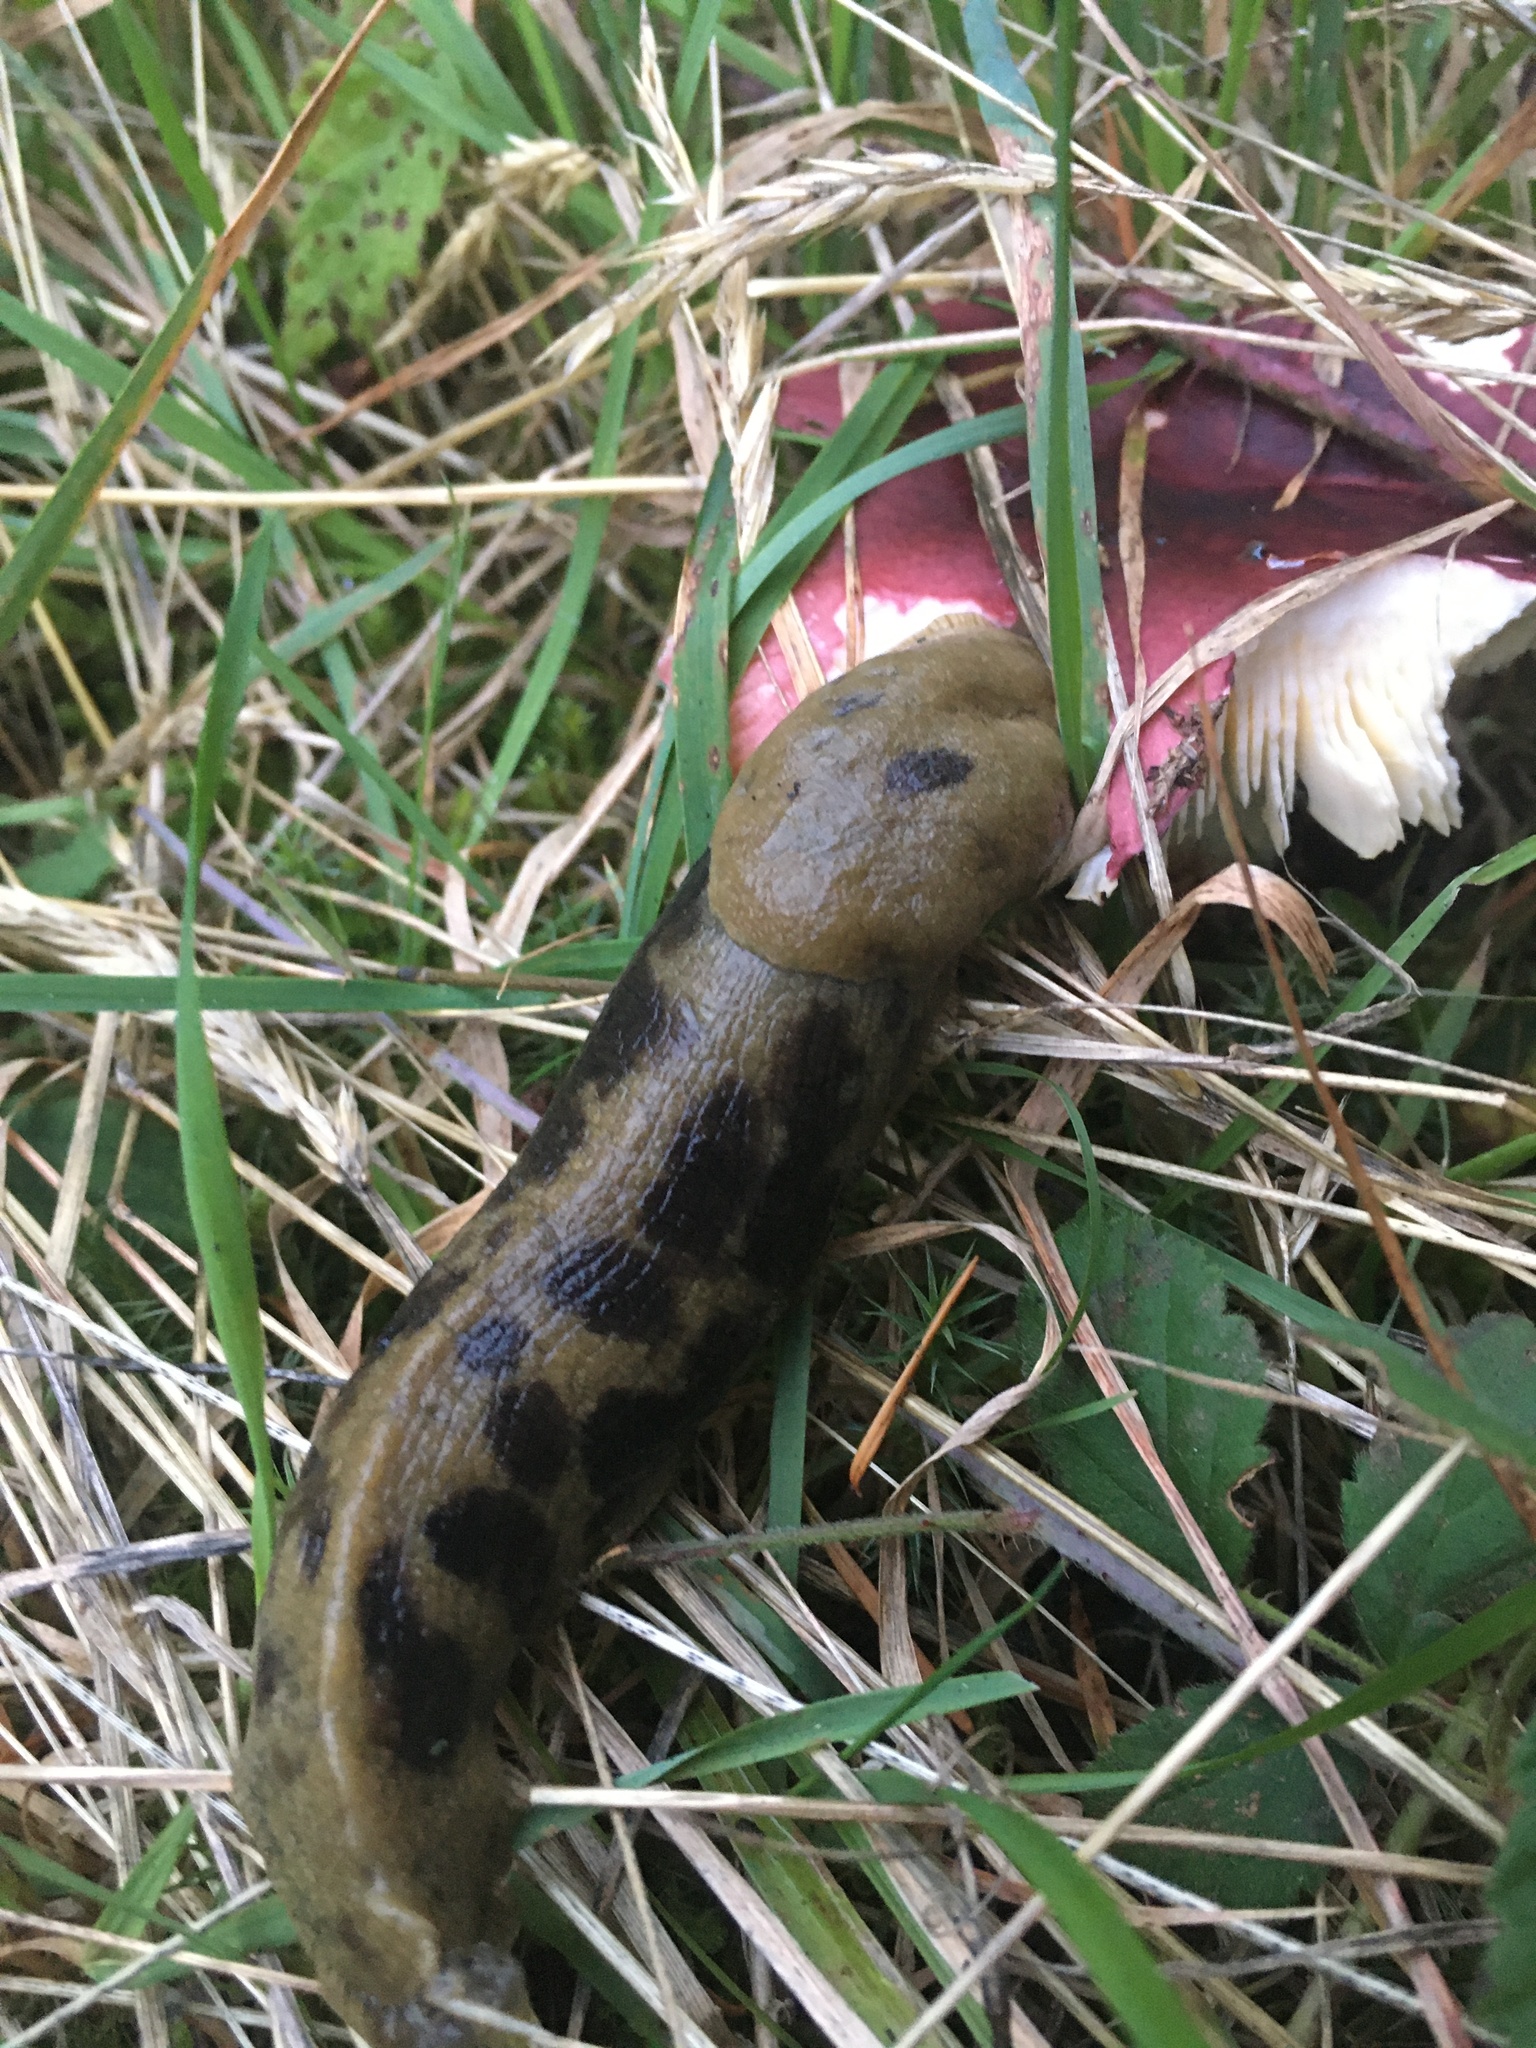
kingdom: Animalia
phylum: Mollusca
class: Gastropoda
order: Stylommatophora
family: Ariolimacidae
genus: Ariolimax
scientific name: Ariolimax columbianus
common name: Pacific banana slug
